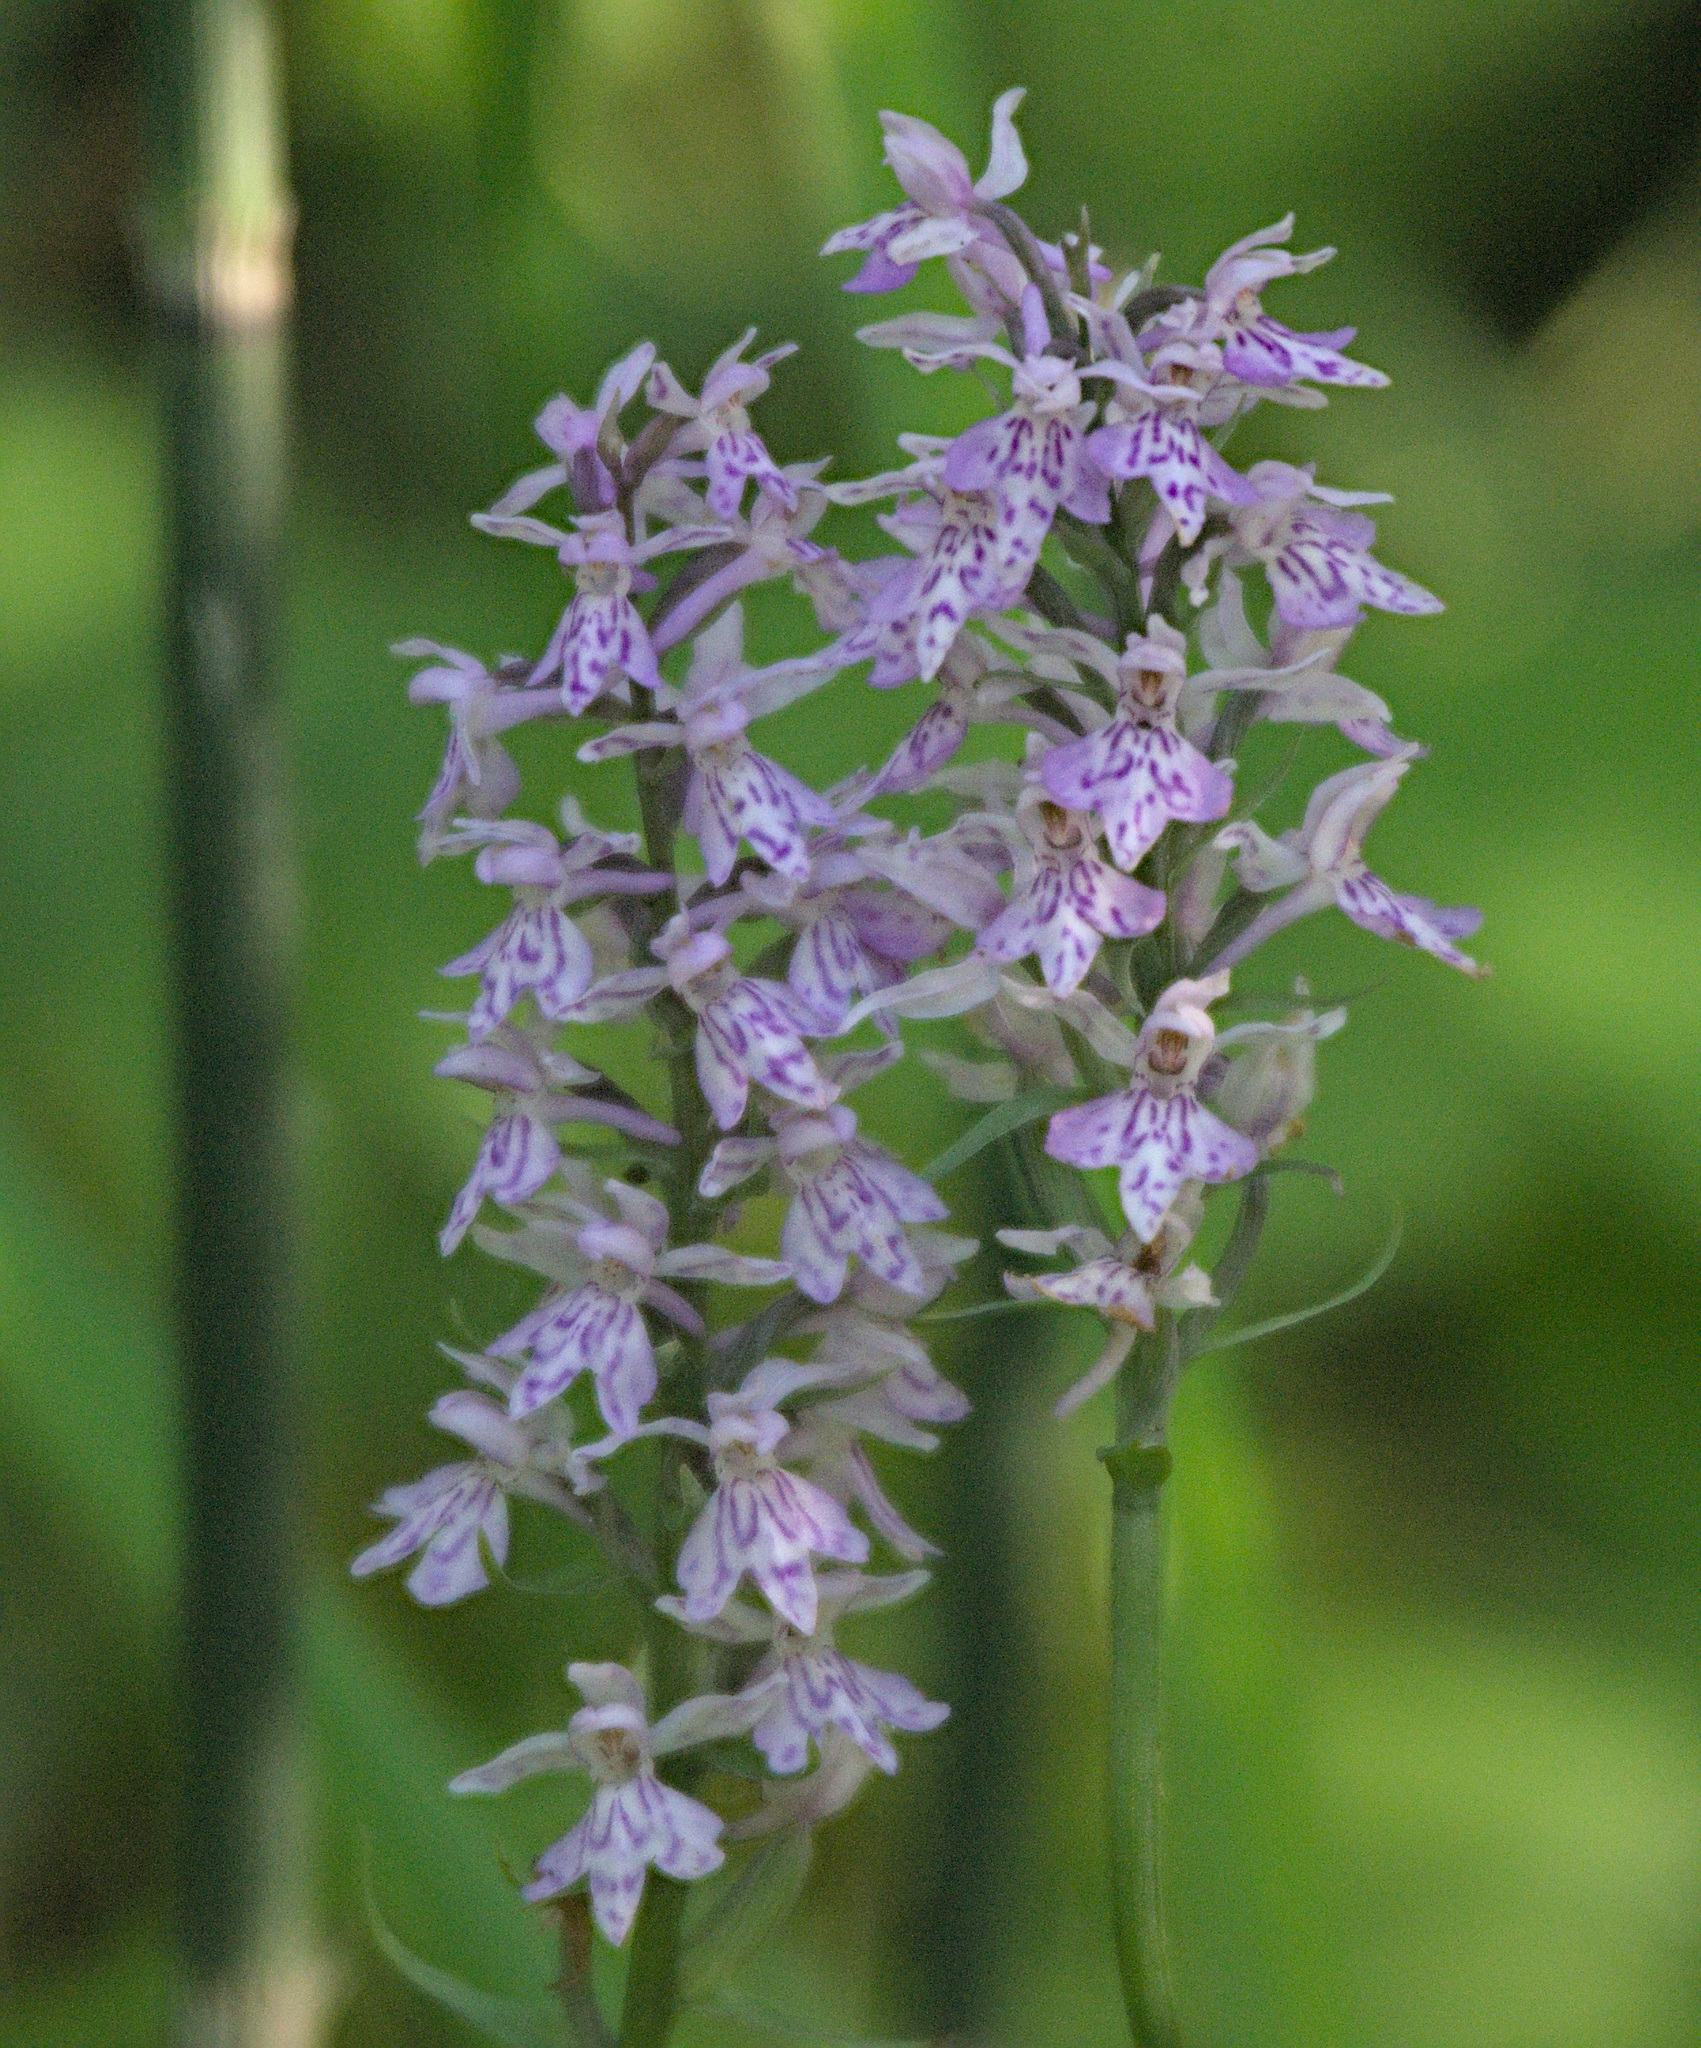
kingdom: Plantae
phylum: Tracheophyta
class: Liliopsida
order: Asparagales
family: Orchidaceae
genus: Dactylorhiza
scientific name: Dactylorhiza maculata
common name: Heath spotted-orchid
